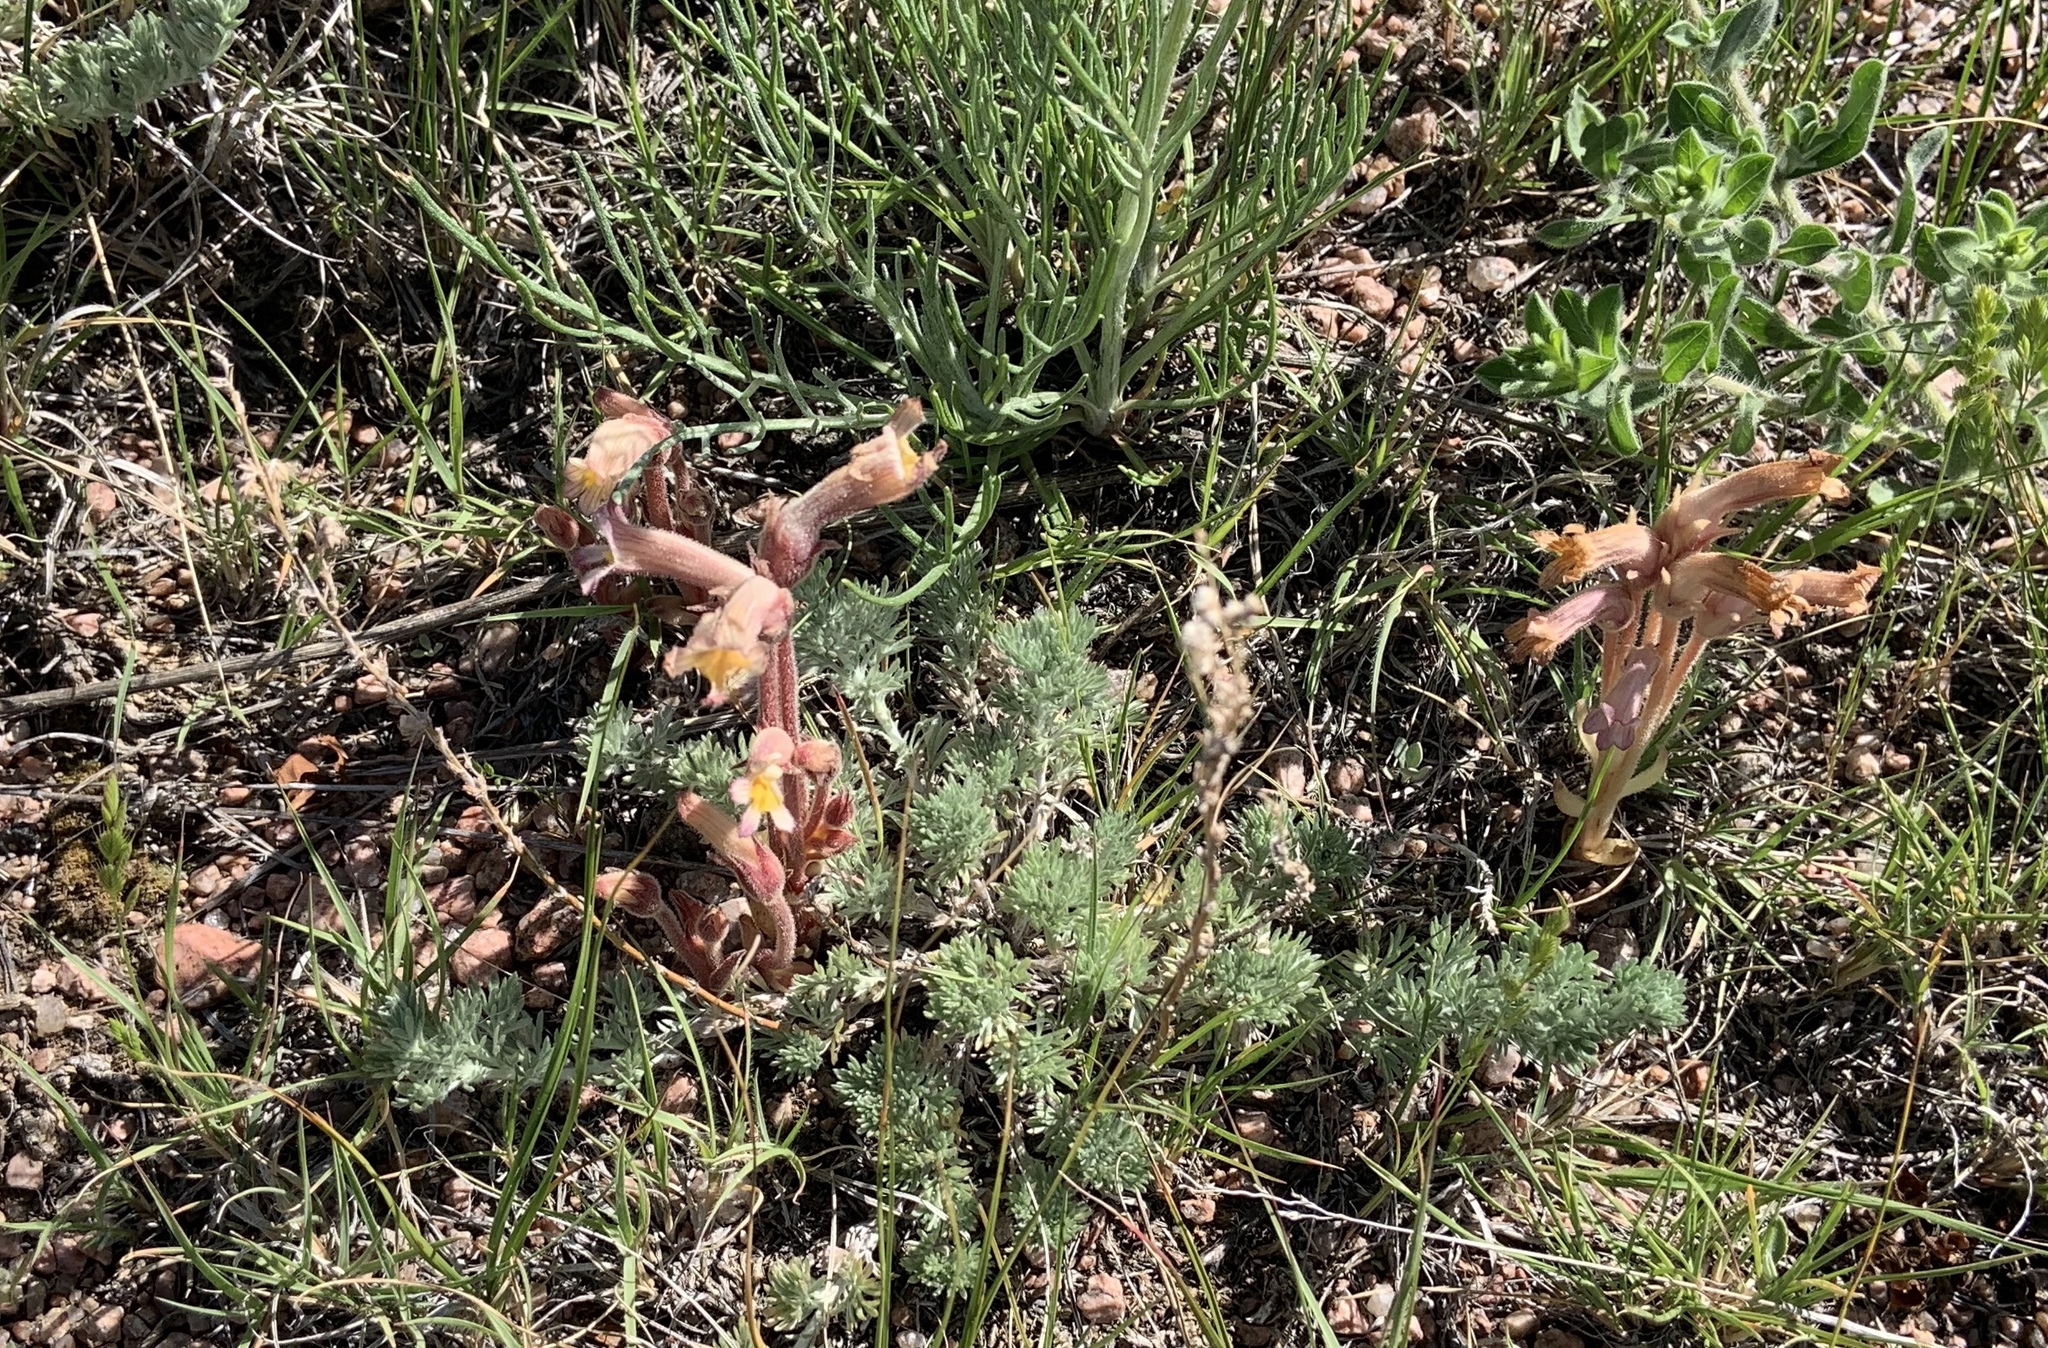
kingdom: Plantae
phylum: Tracheophyta
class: Magnoliopsida
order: Lamiales
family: Orobanchaceae
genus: Aphyllon
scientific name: Aphyllon fasciculatum
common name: Clustered broomrape
